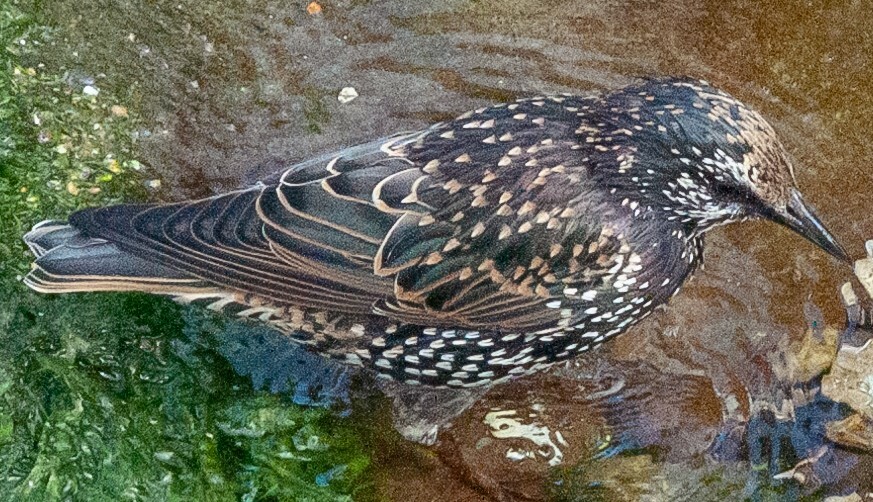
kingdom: Animalia
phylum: Chordata
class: Aves
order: Passeriformes
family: Sturnidae
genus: Sturnus
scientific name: Sturnus vulgaris
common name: Common starling
